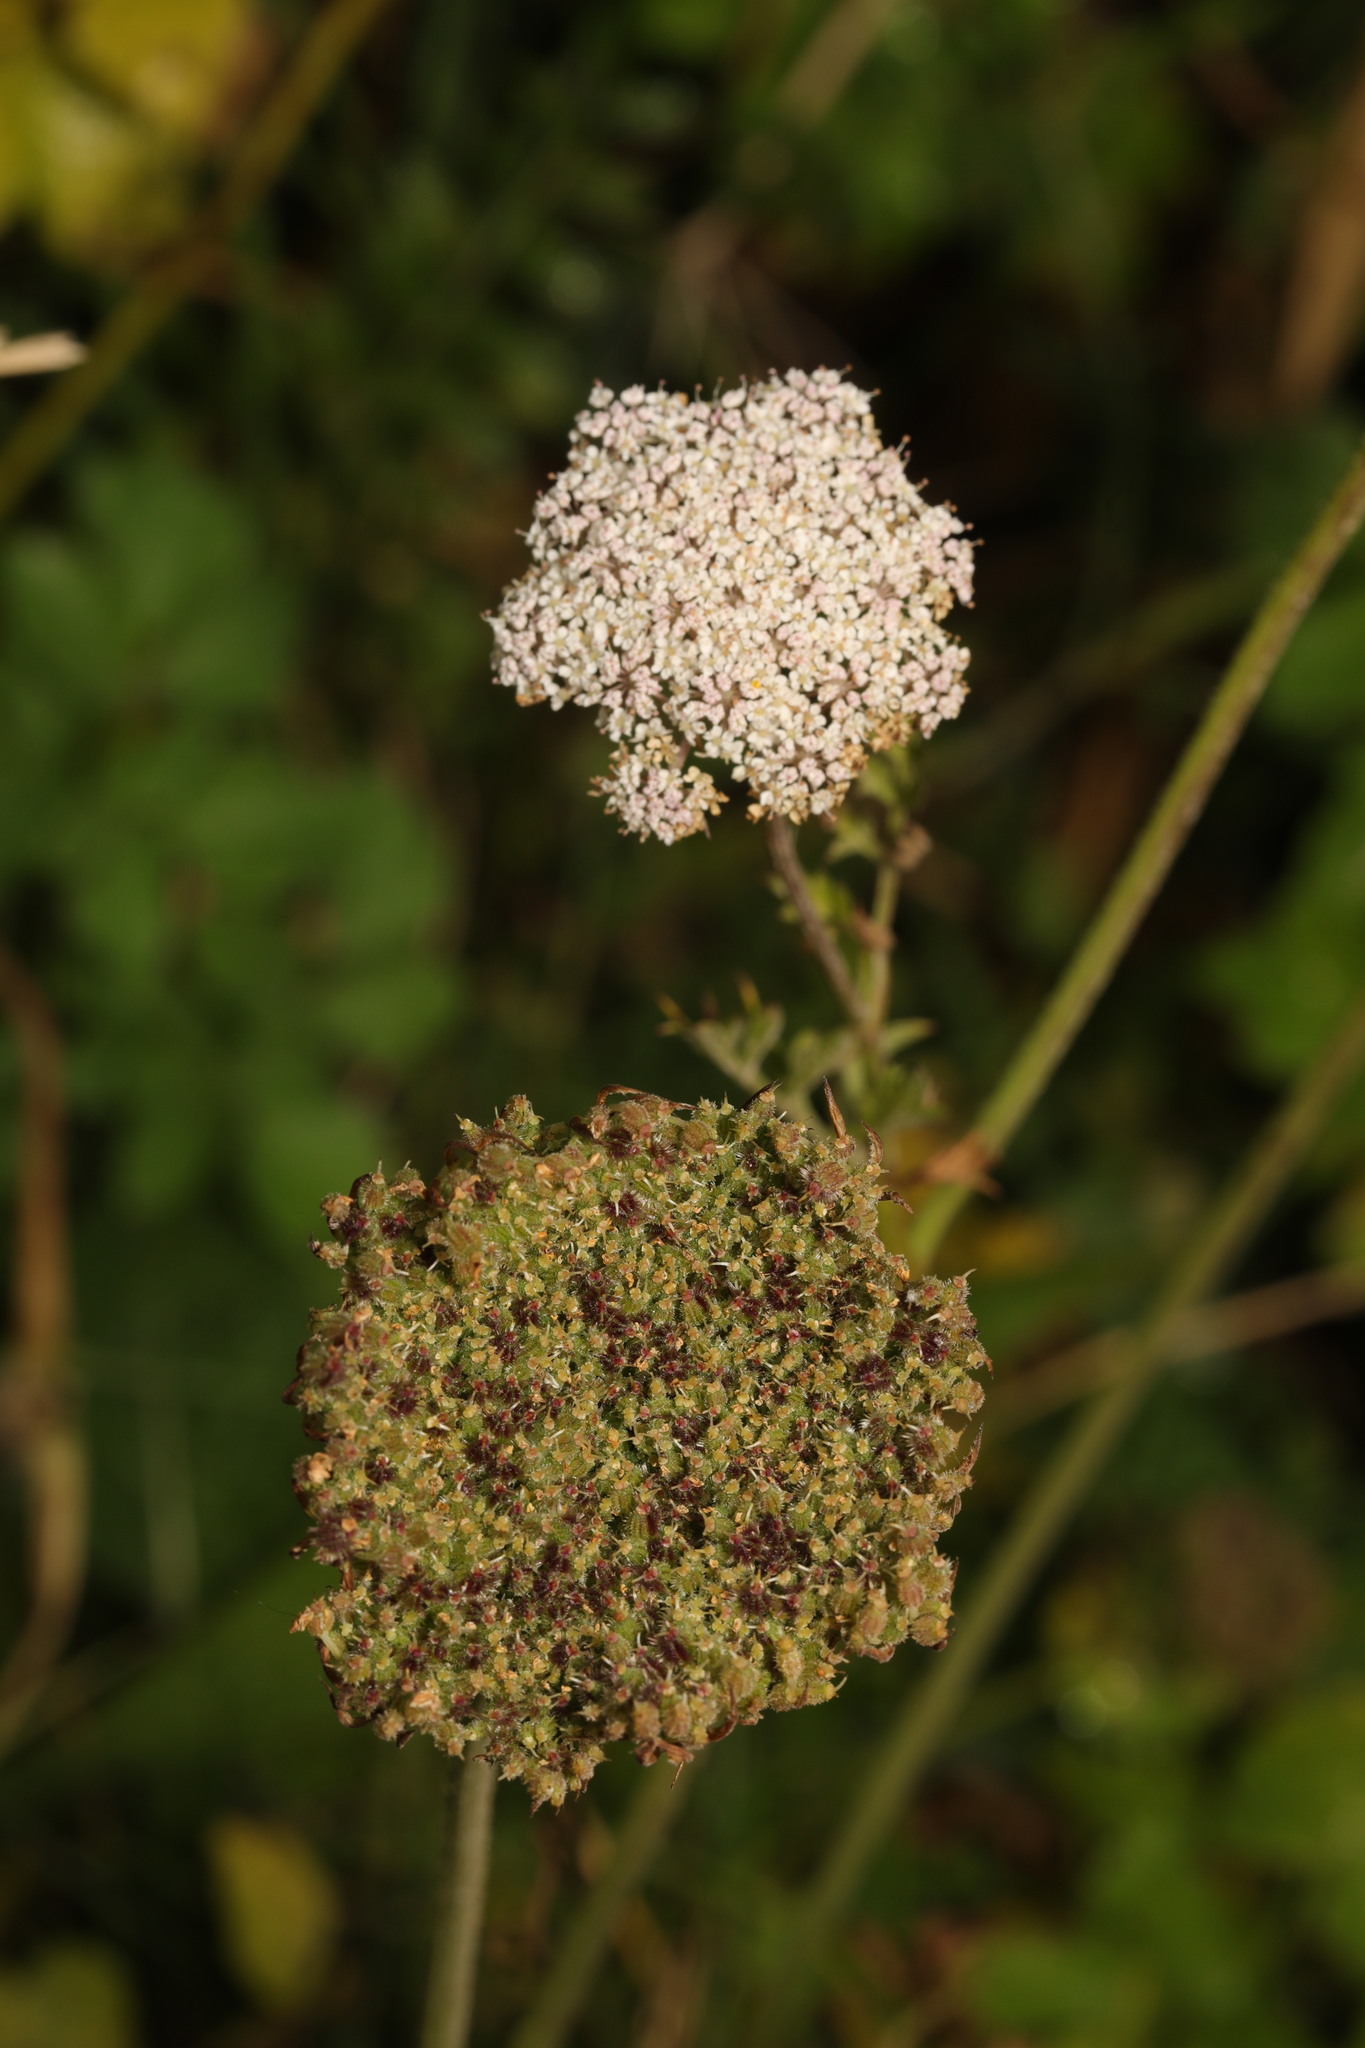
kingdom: Plantae
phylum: Tracheophyta
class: Magnoliopsida
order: Apiales
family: Apiaceae
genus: Daucus
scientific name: Daucus carota
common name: Wild carrot
